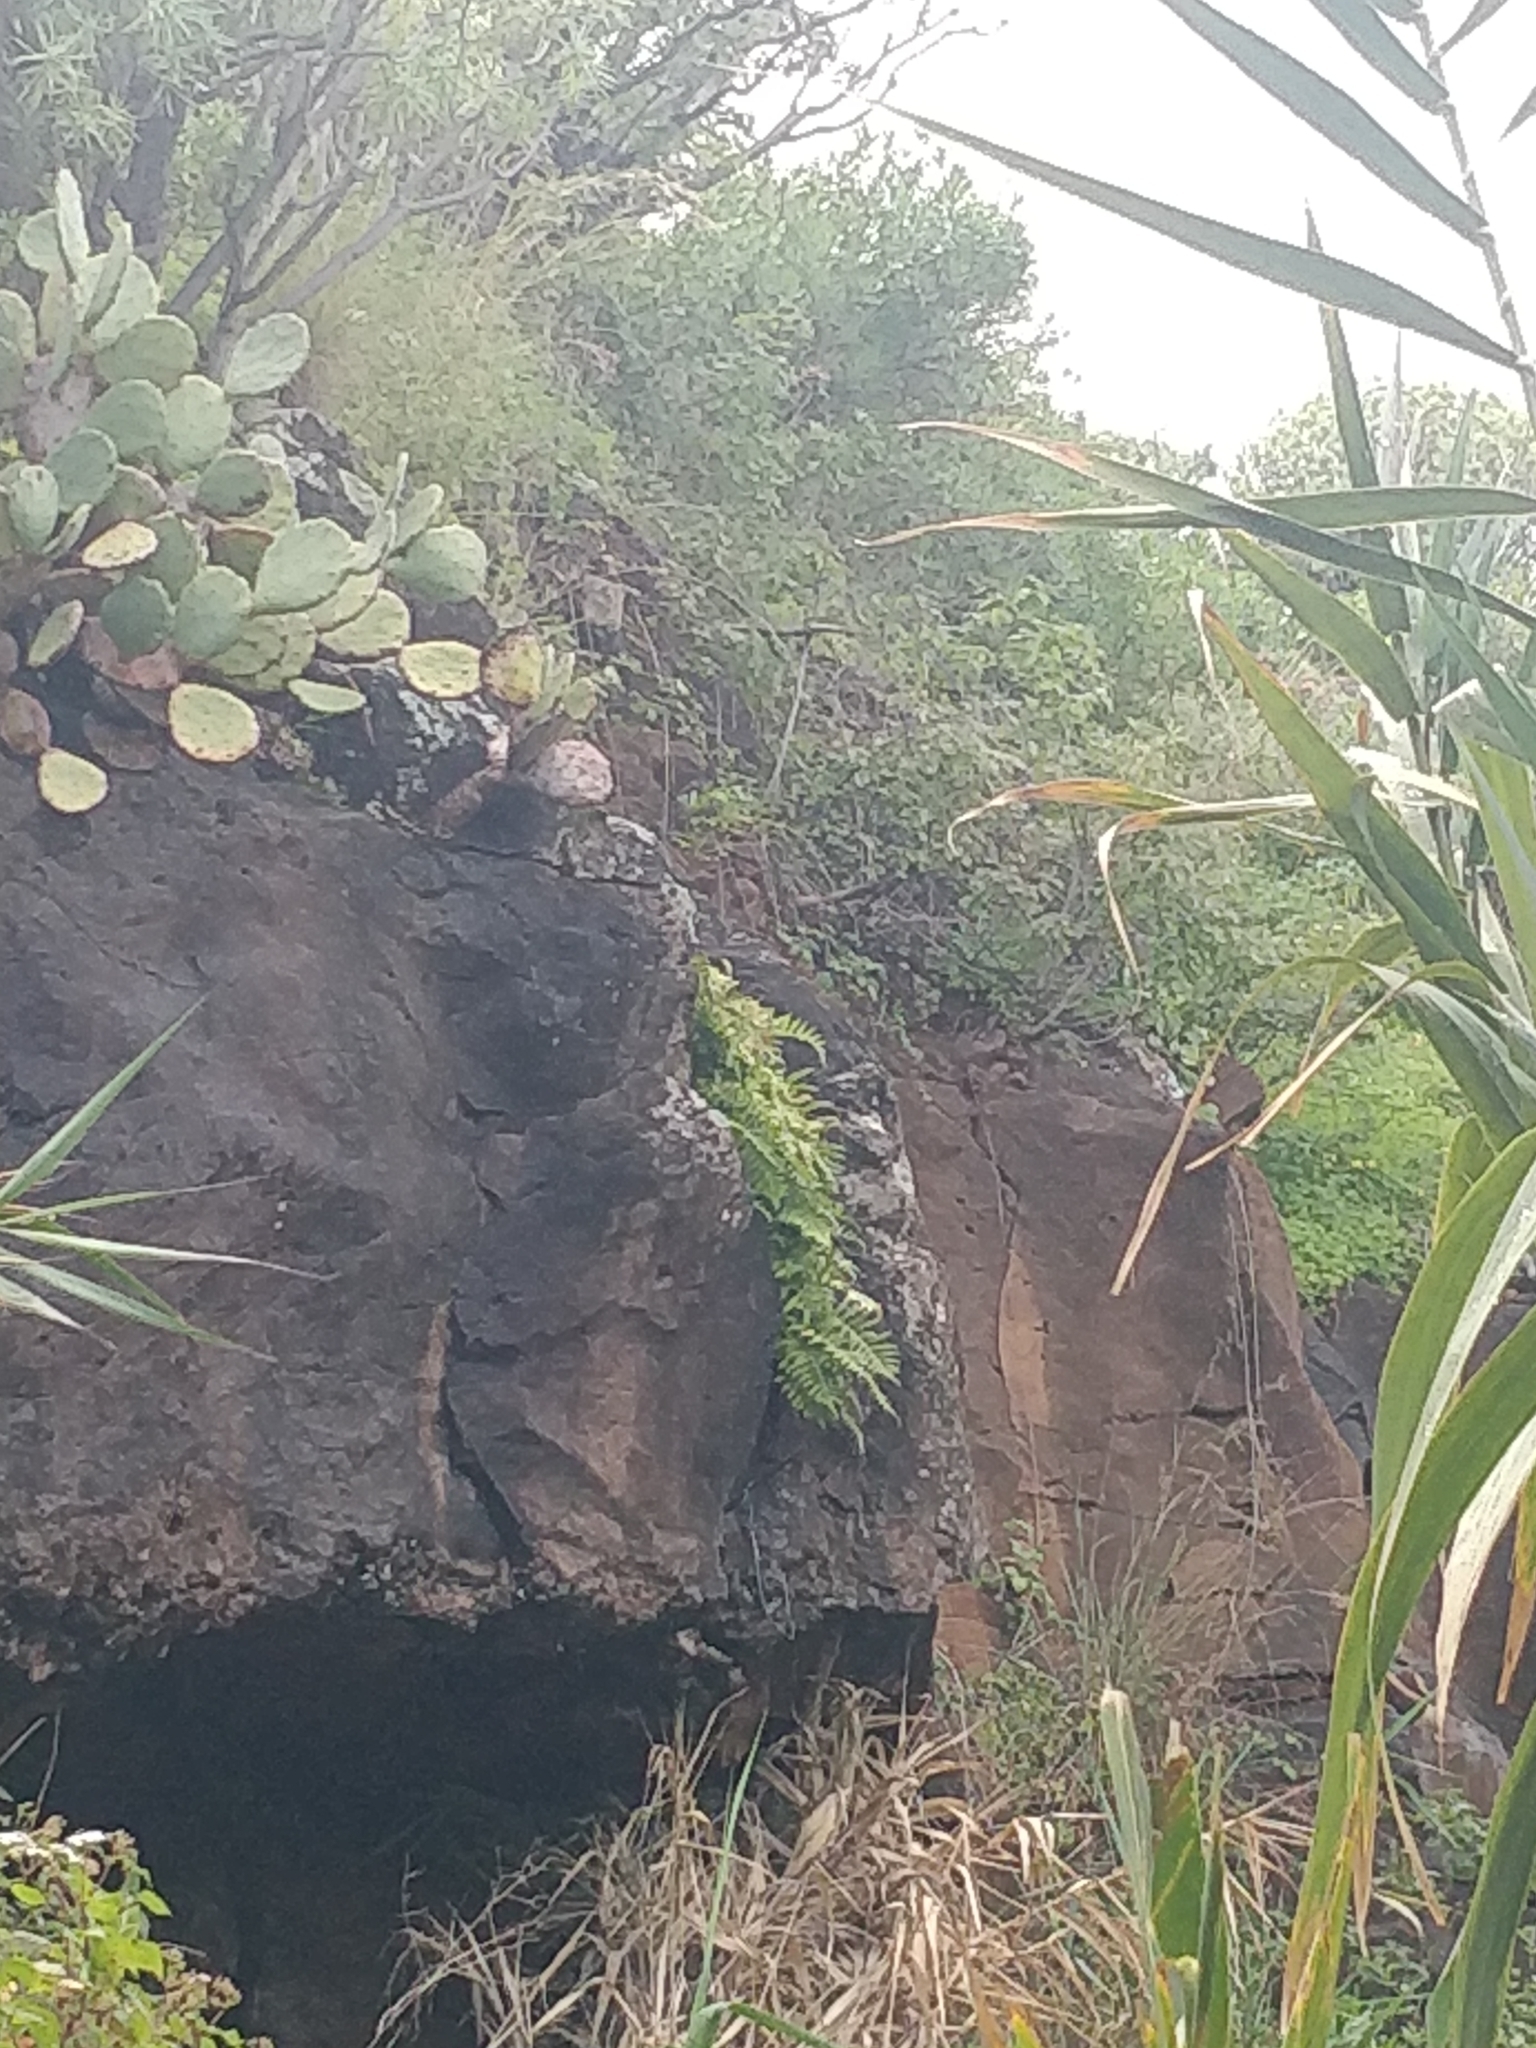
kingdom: Plantae
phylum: Tracheophyta
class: Polypodiopsida
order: Polypodiales
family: Polypodiaceae
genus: Polypodium
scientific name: Polypodium macaronesicum
